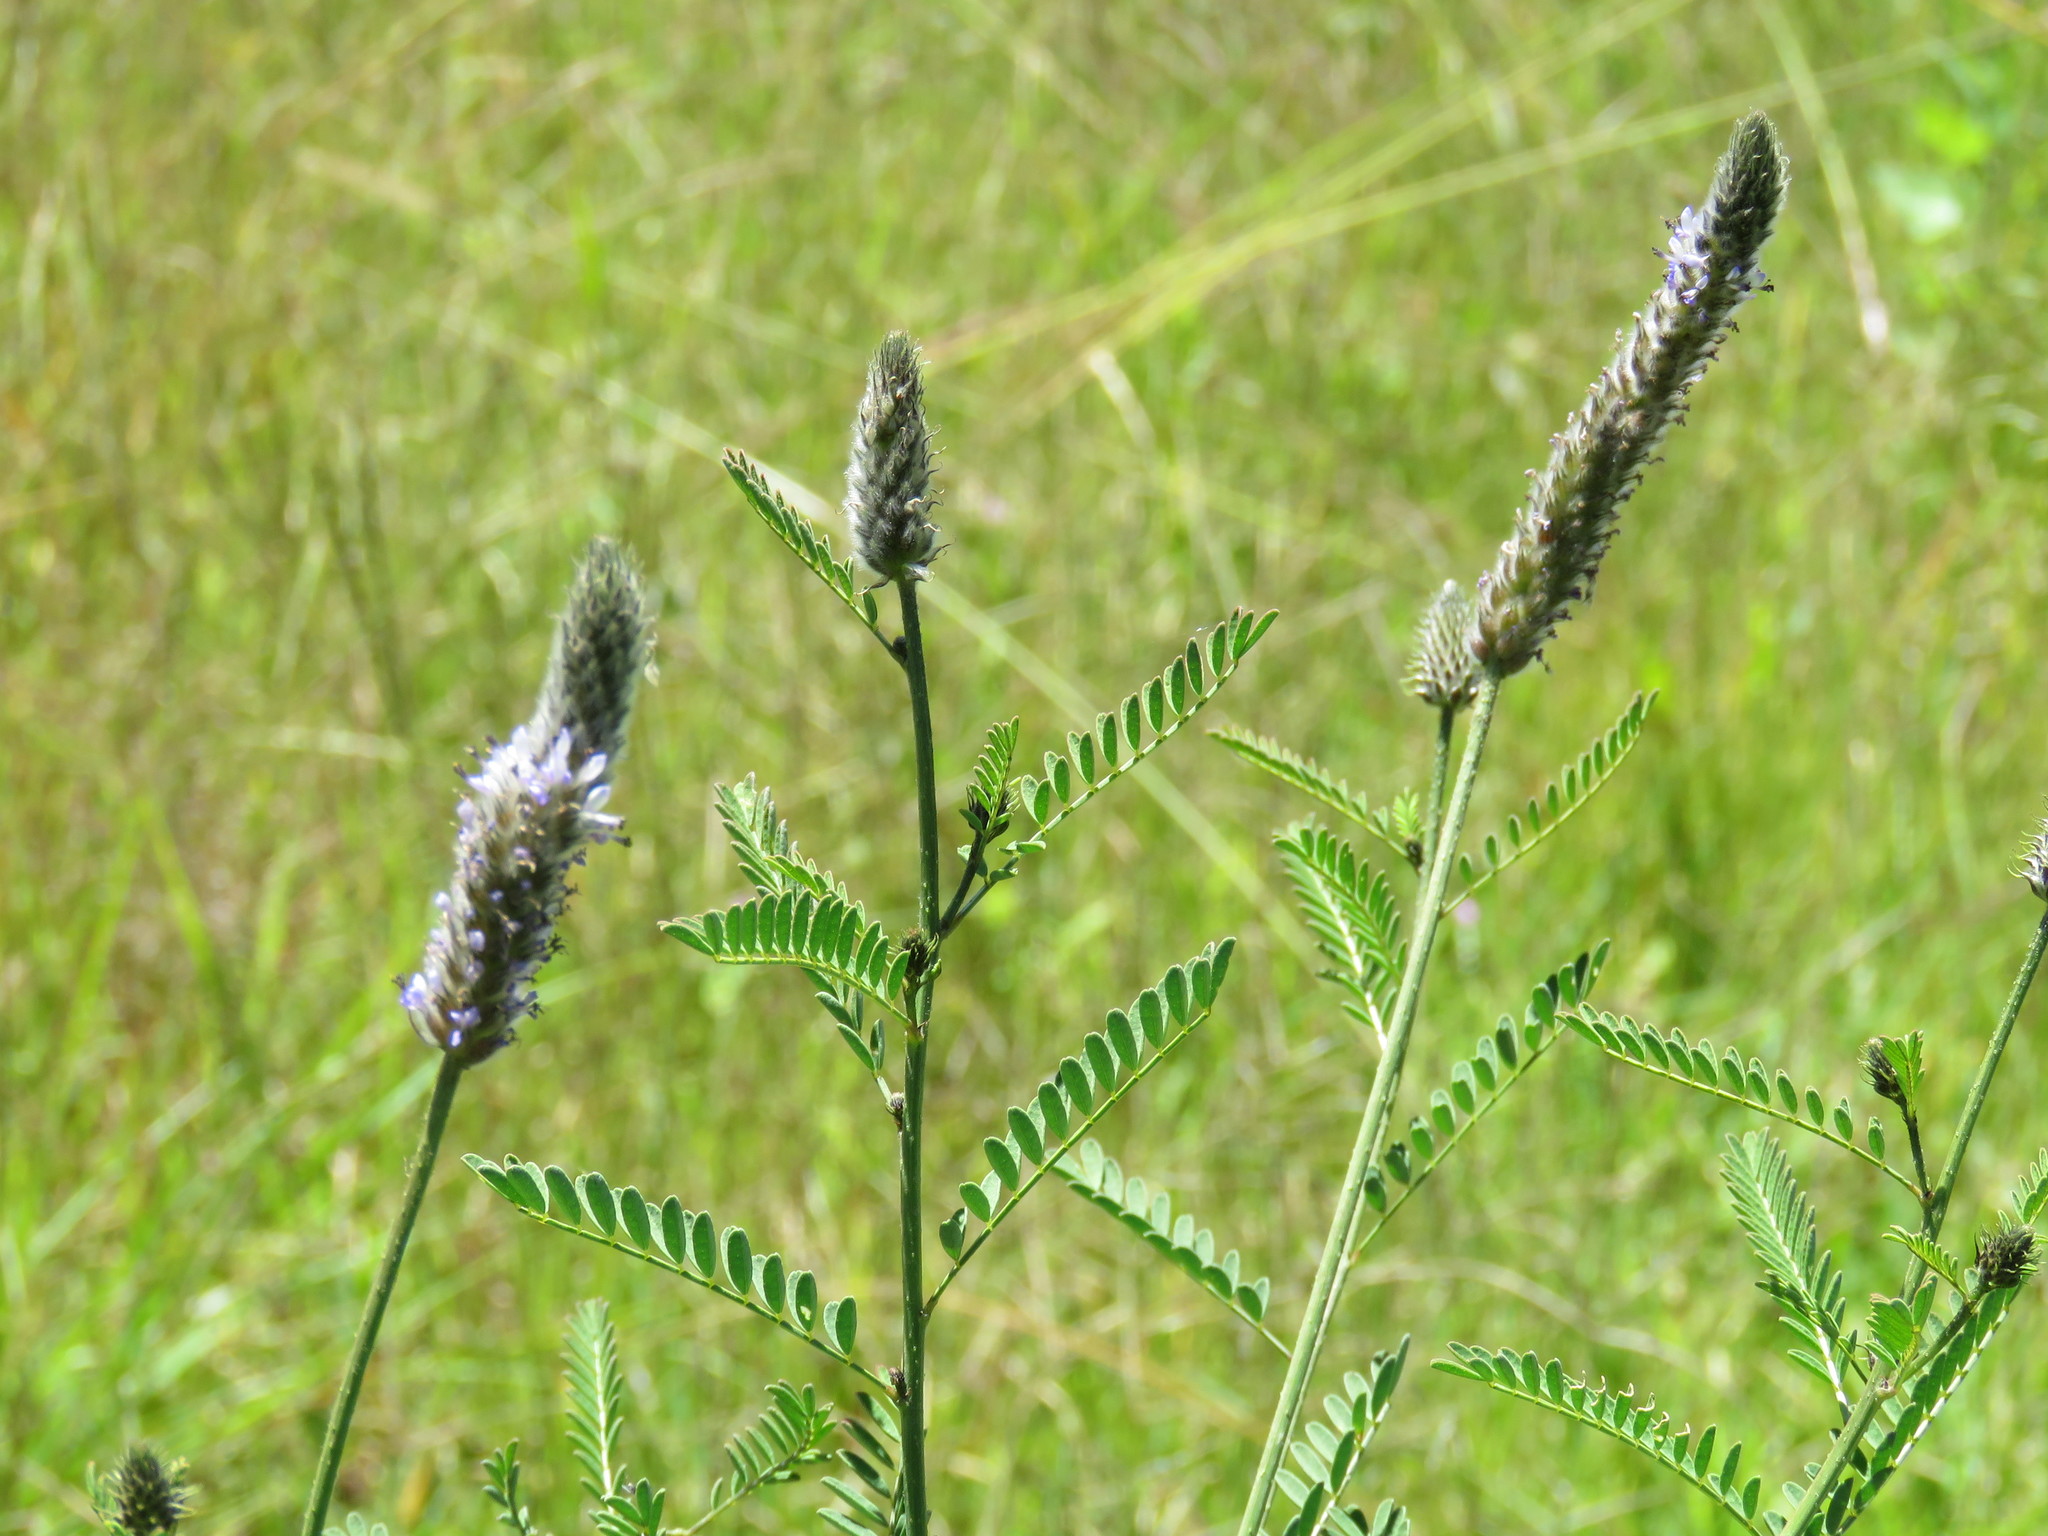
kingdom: Plantae
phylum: Tracheophyta
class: Magnoliopsida
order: Fabales
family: Fabaceae
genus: Dalea
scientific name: Dalea leporina
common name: Foxtail dalea
